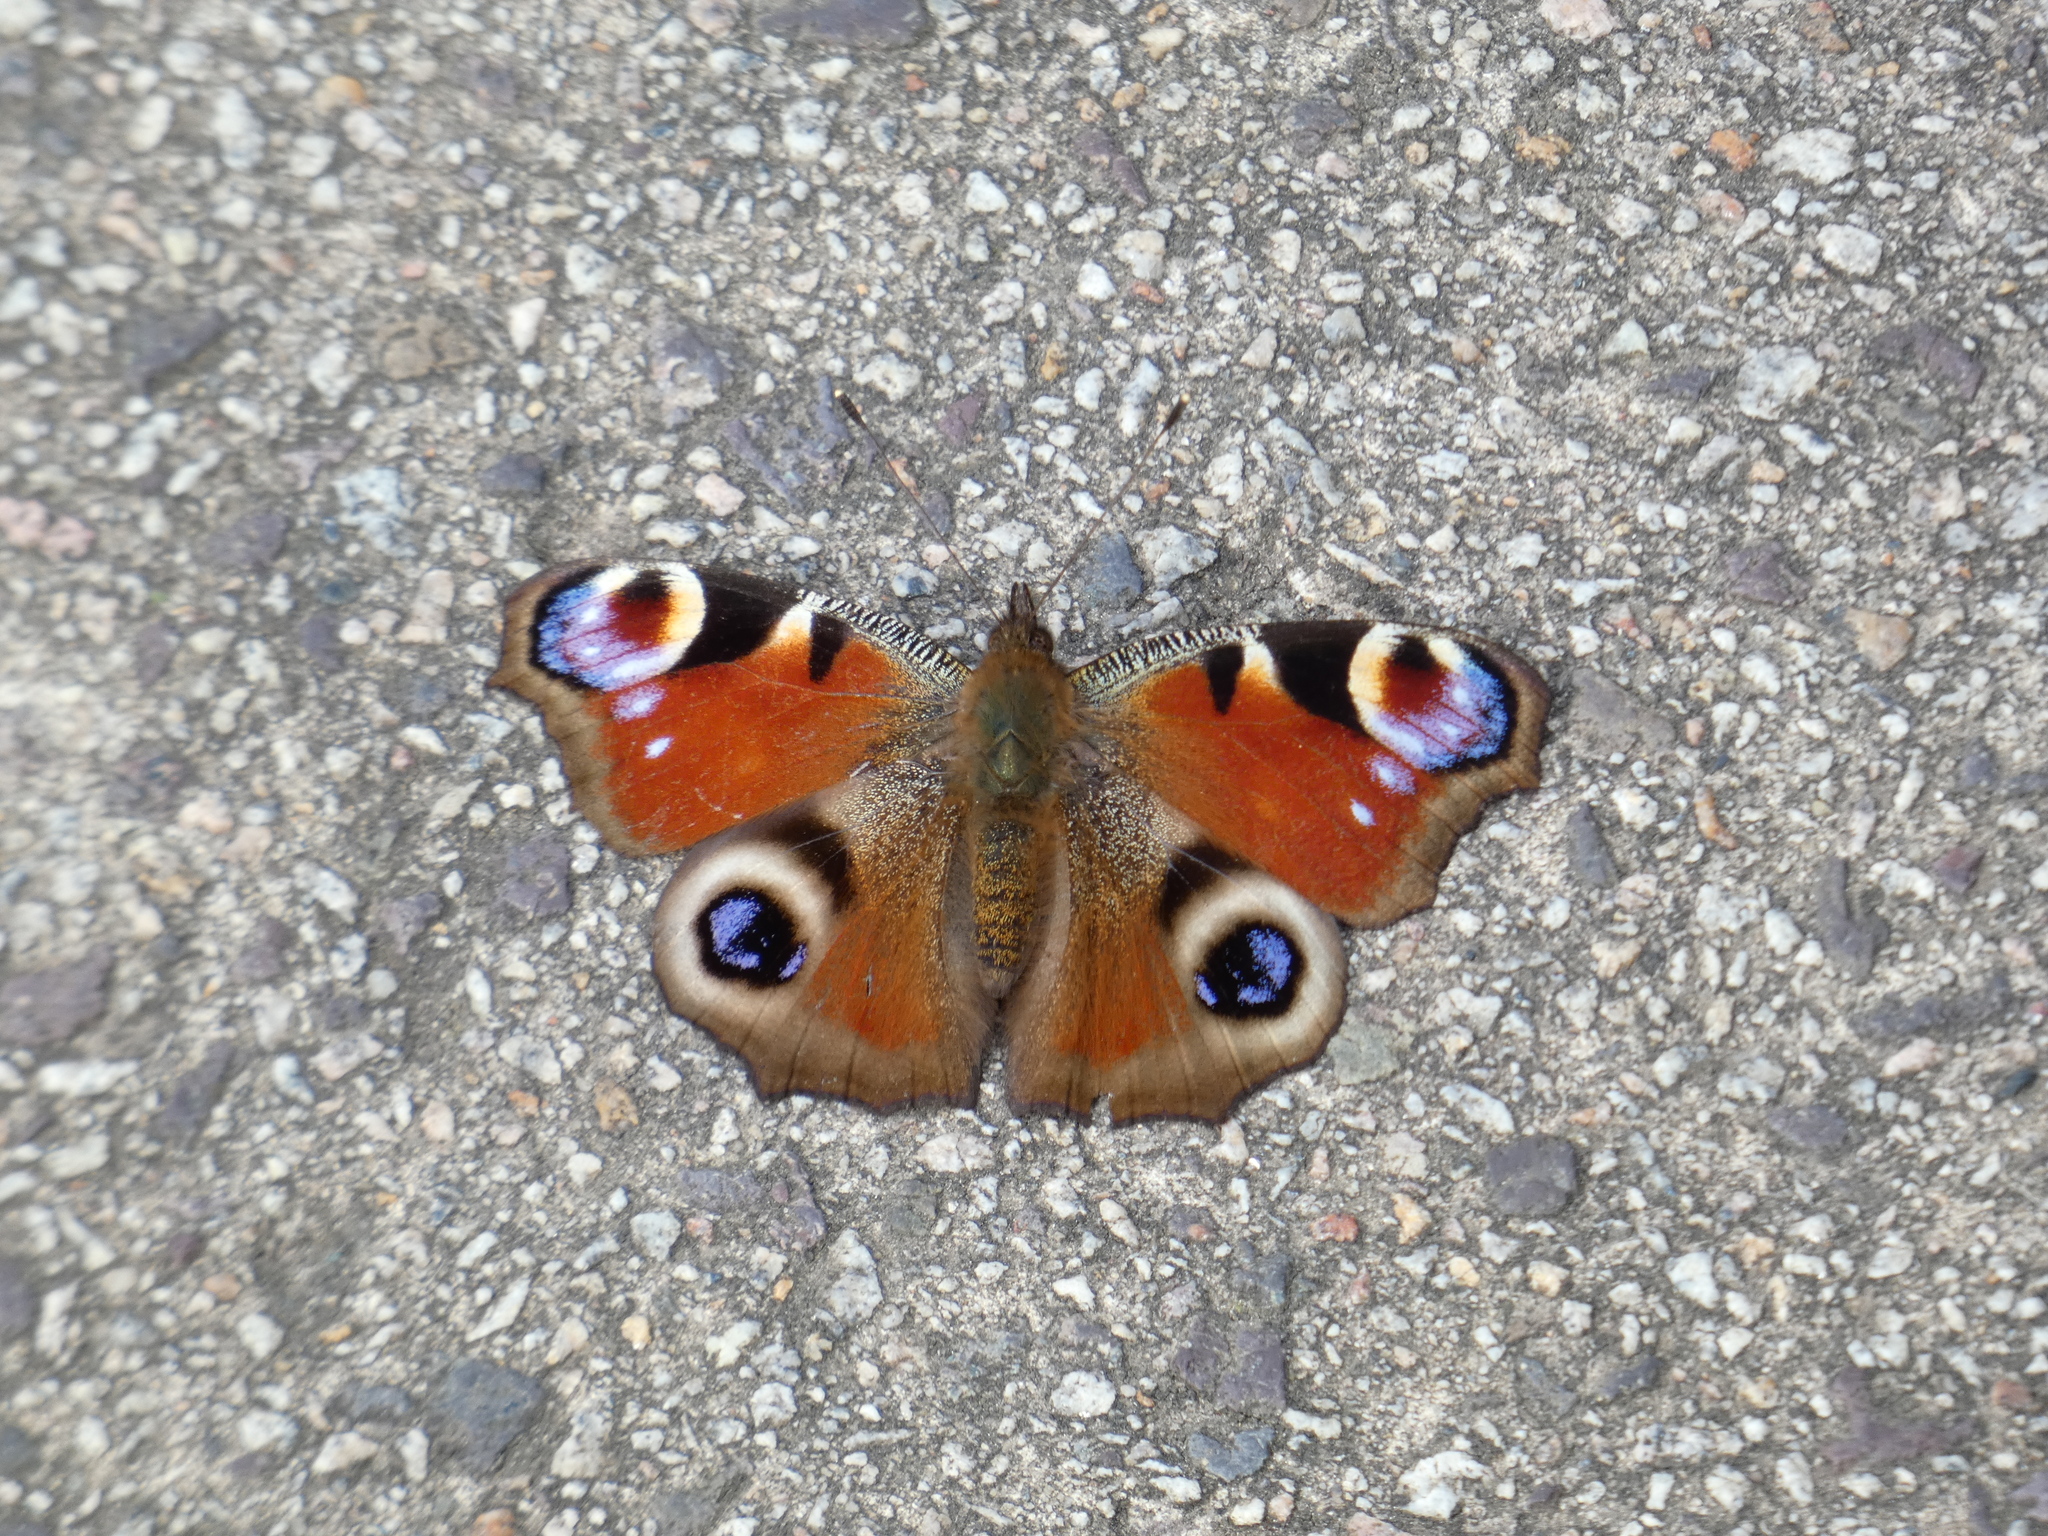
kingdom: Animalia
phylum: Arthropoda
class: Insecta
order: Lepidoptera
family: Nymphalidae
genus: Aglais
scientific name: Aglais io
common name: Peacock
